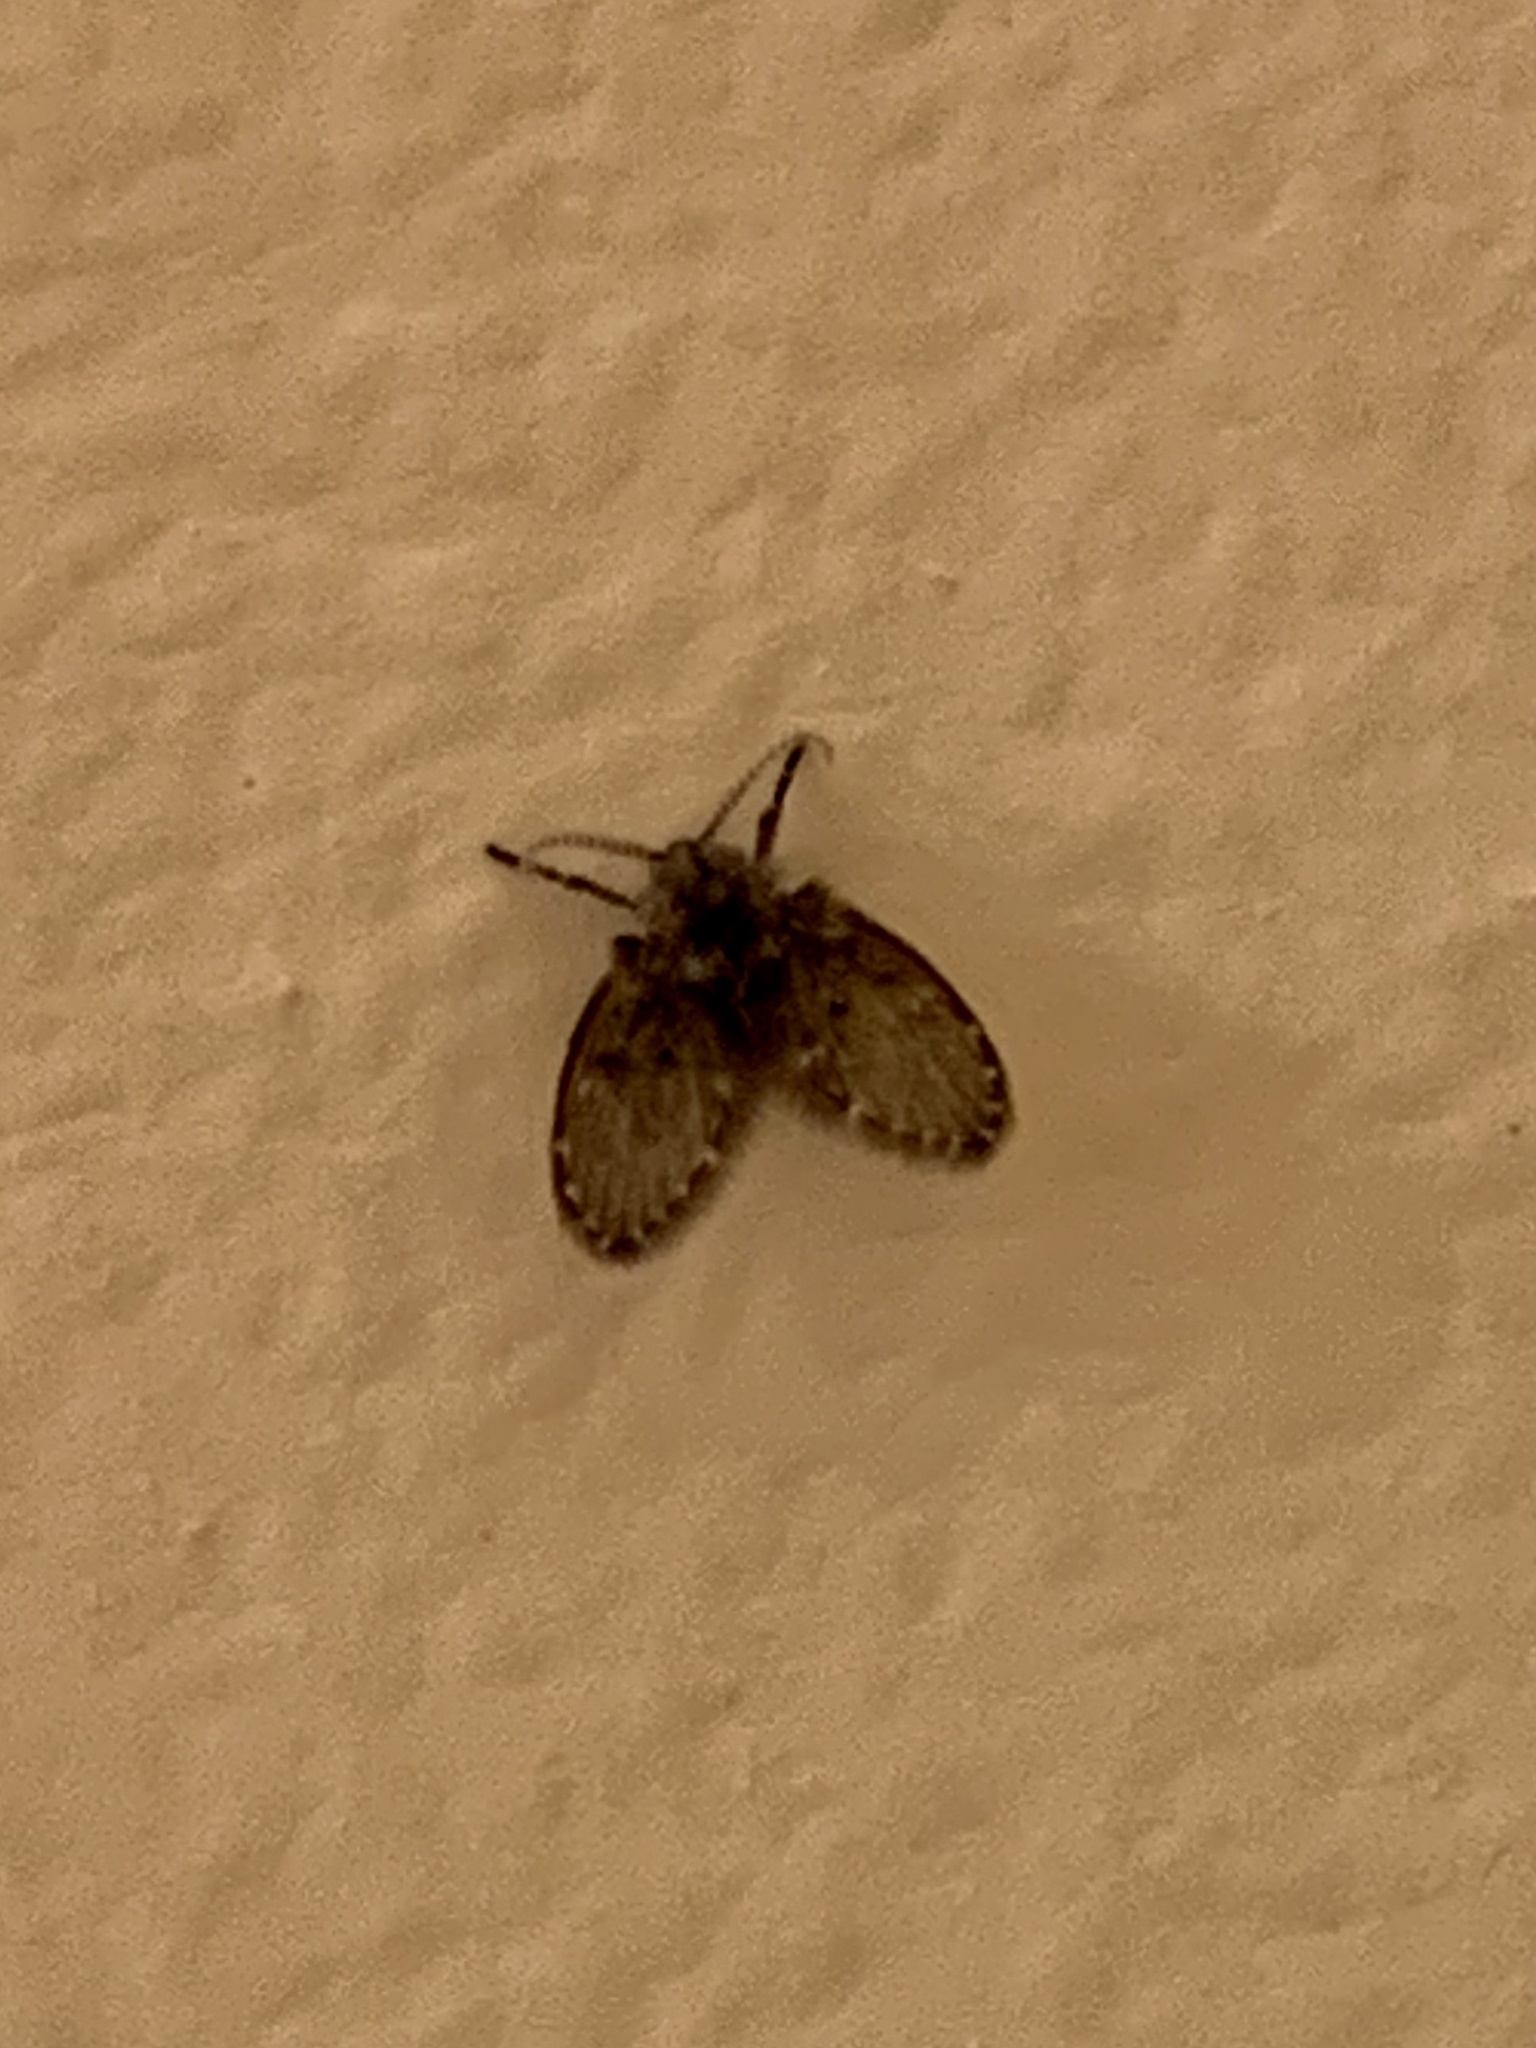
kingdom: Animalia
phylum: Arthropoda
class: Insecta
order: Diptera
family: Psychodidae
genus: Clogmia
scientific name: Clogmia albipunctatus
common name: White-spotted moth fly
